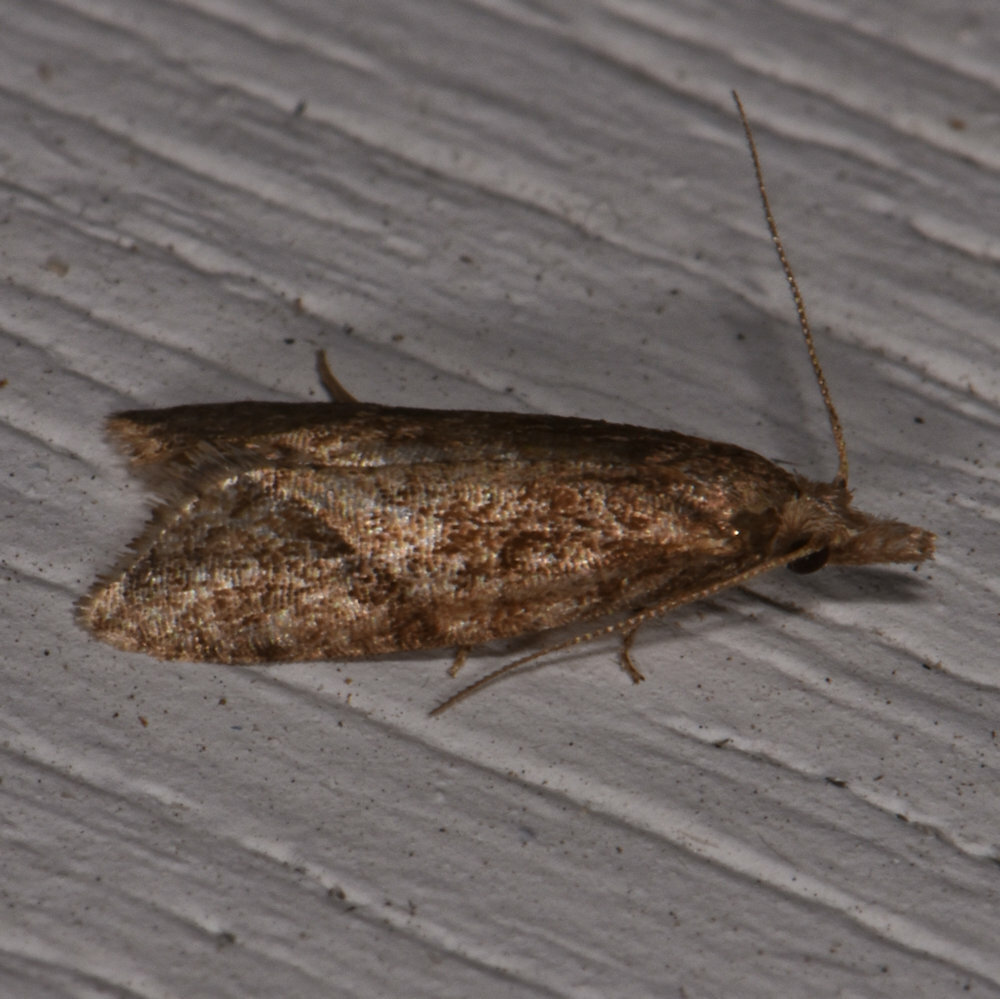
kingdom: Animalia
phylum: Arthropoda
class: Insecta
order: Lepidoptera
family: Tortricidae
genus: Aethes
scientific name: Aethes biscana
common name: Reddish aethes
